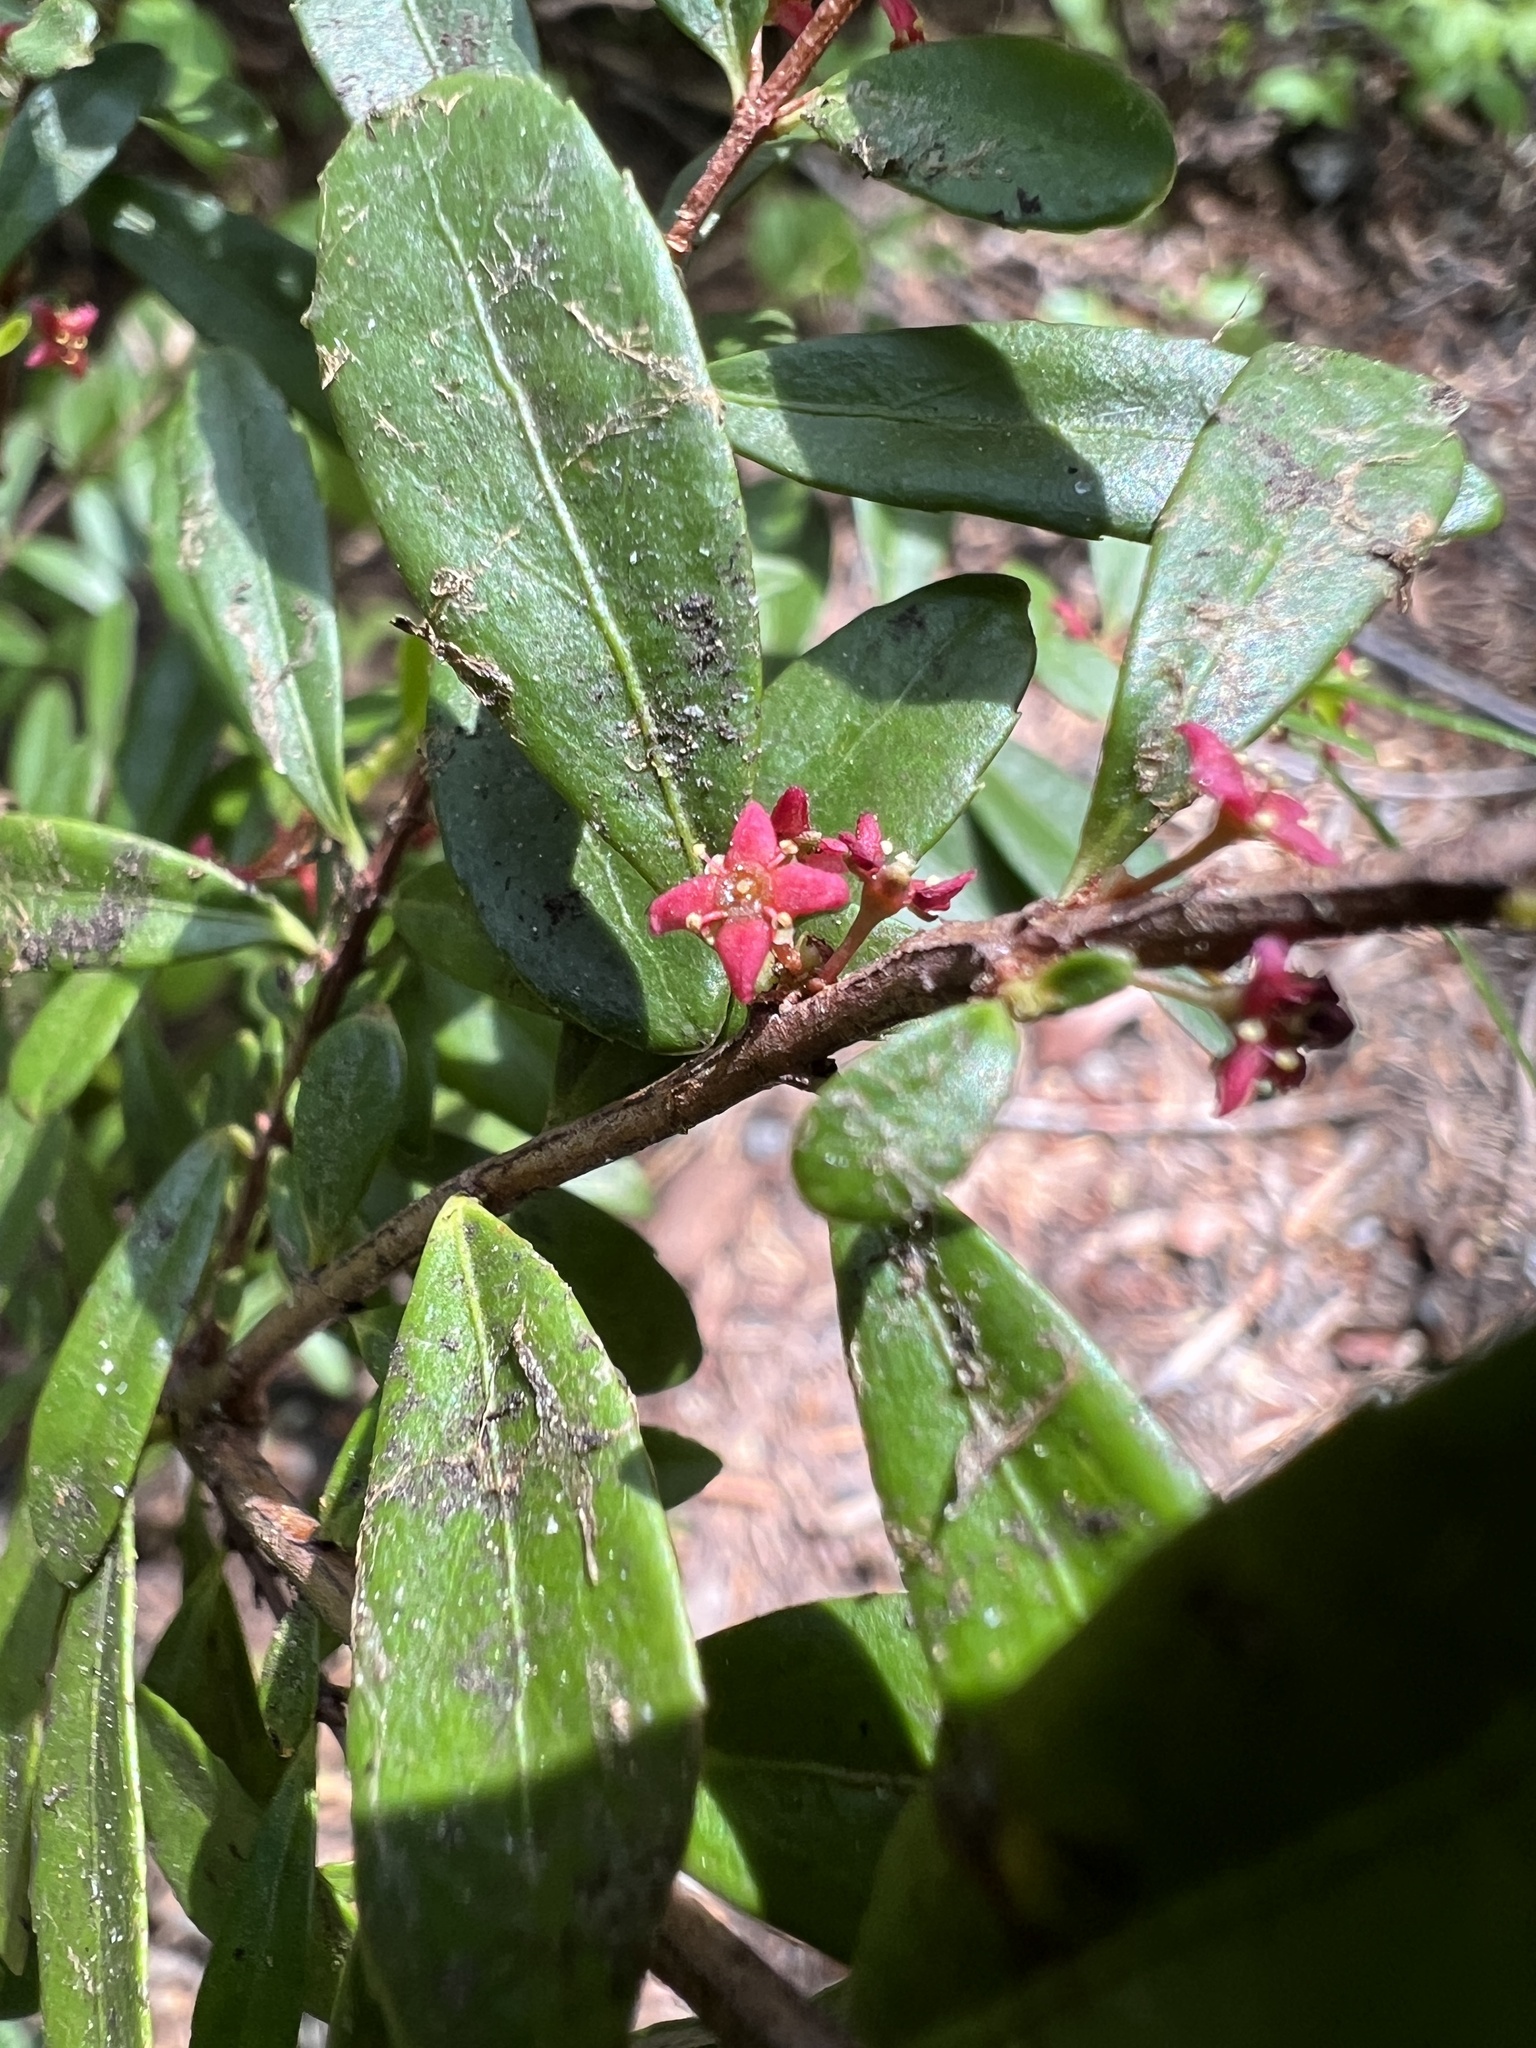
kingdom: Plantae
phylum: Tracheophyta
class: Magnoliopsida
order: Celastrales
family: Celastraceae
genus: Paxistima
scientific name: Paxistima myrsinites
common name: Mountain-lover
